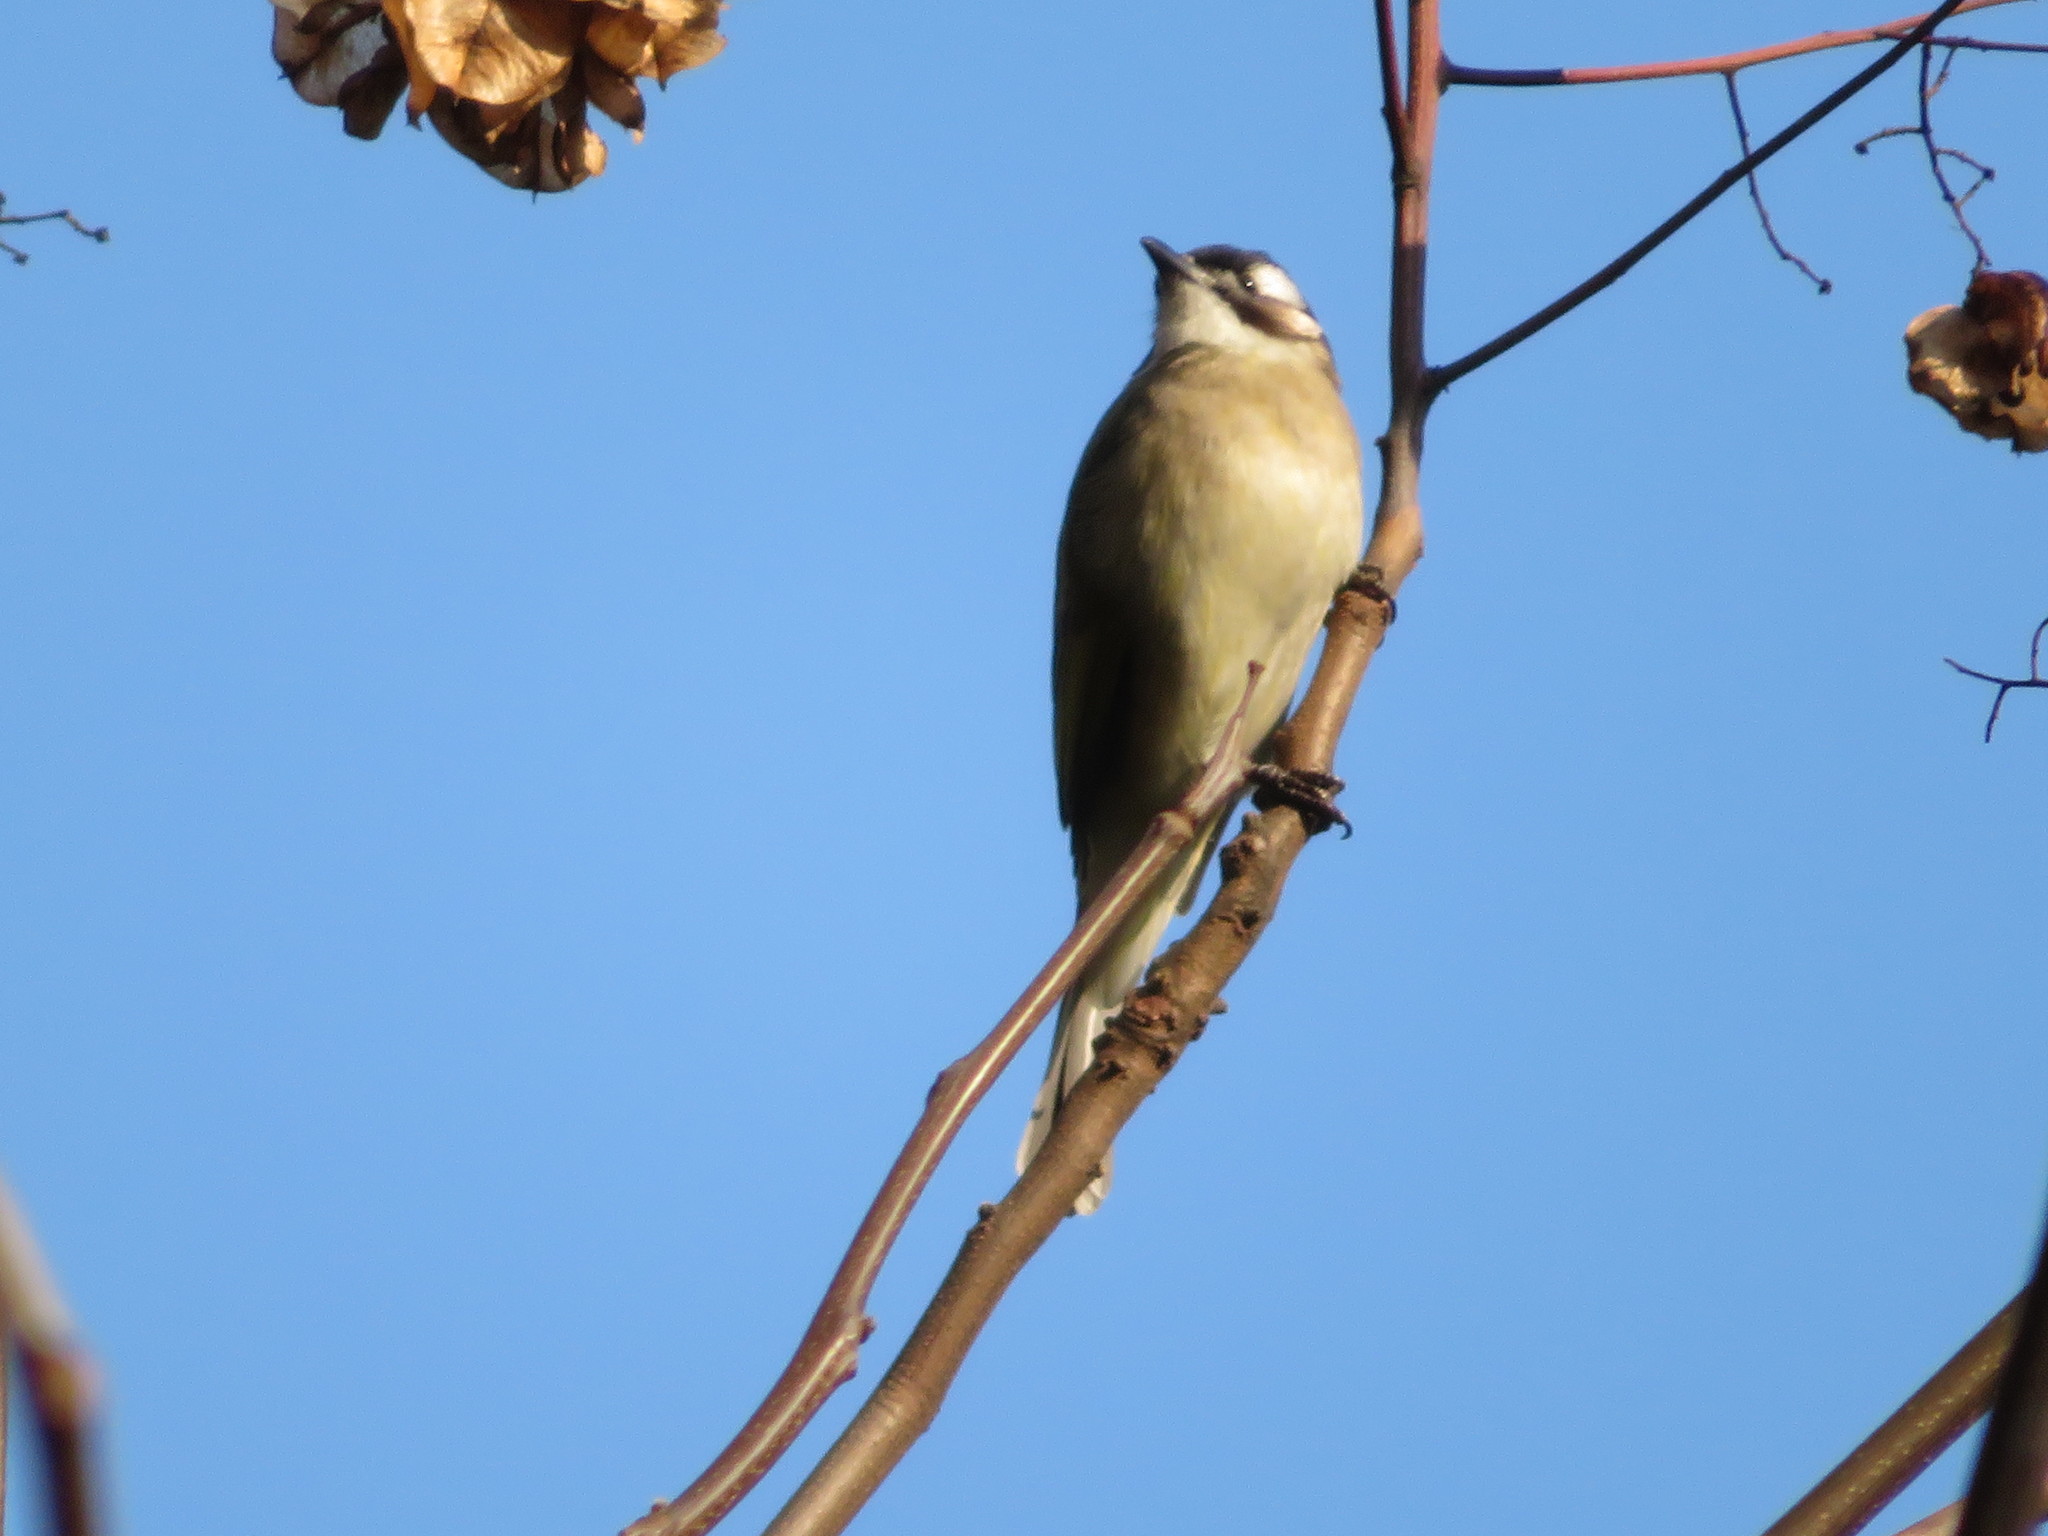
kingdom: Animalia
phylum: Chordata
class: Aves
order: Passeriformes
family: Pycnonotidae
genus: Pycnonotus
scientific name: Pycnonotus sinensis
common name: Light-vented bulbul
